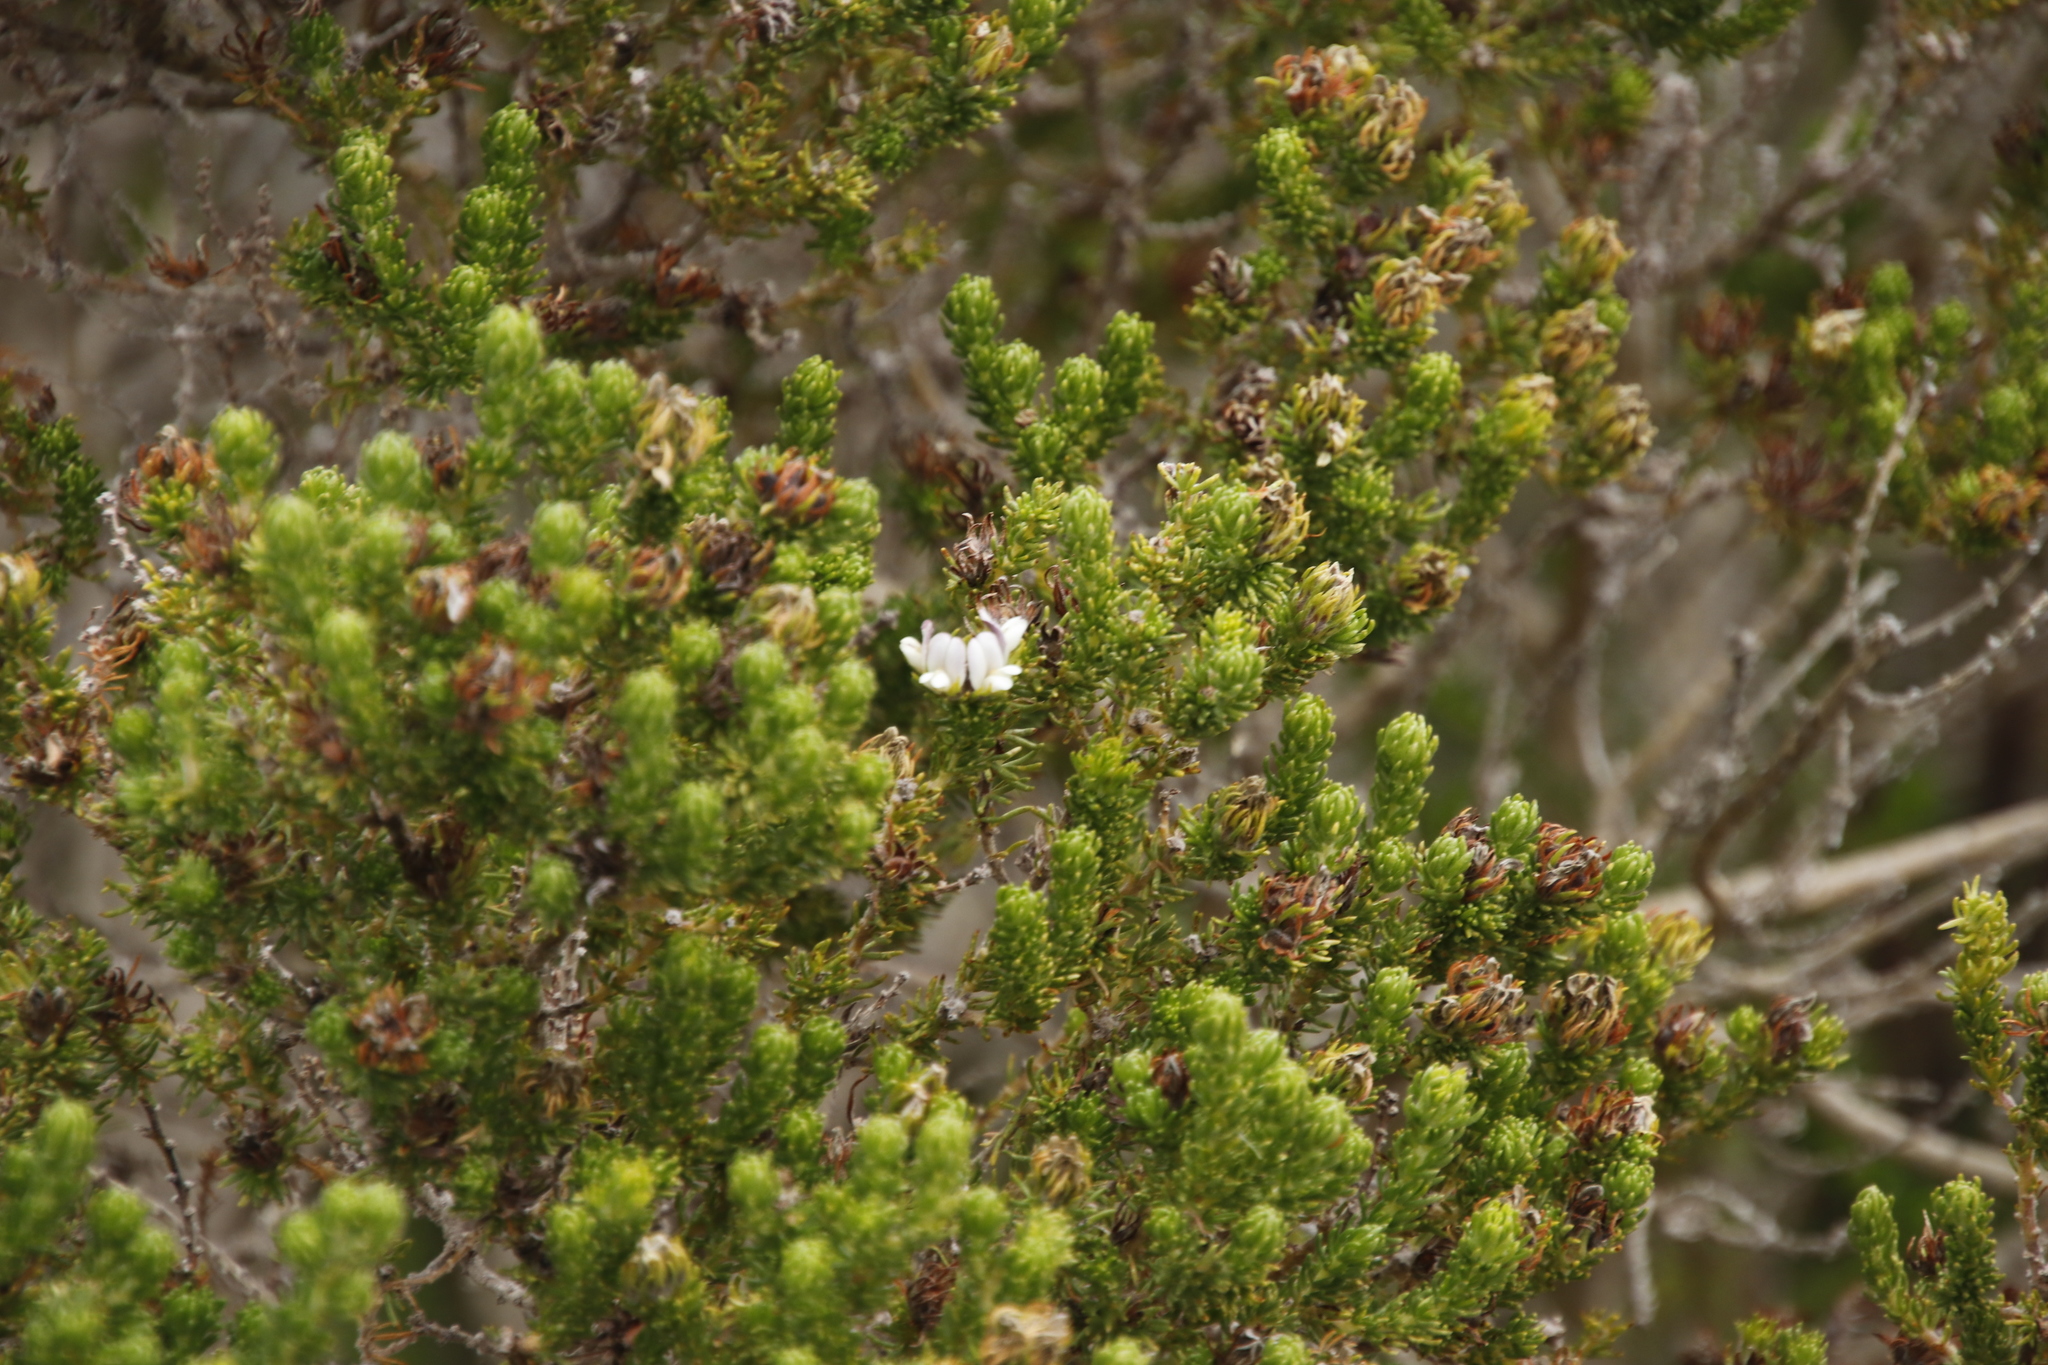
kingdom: Plantae
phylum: Tracheophyta
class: Magnoliopsida
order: Fabales
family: Fabaceae
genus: Aspalathus
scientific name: Aspalathus forbesii
